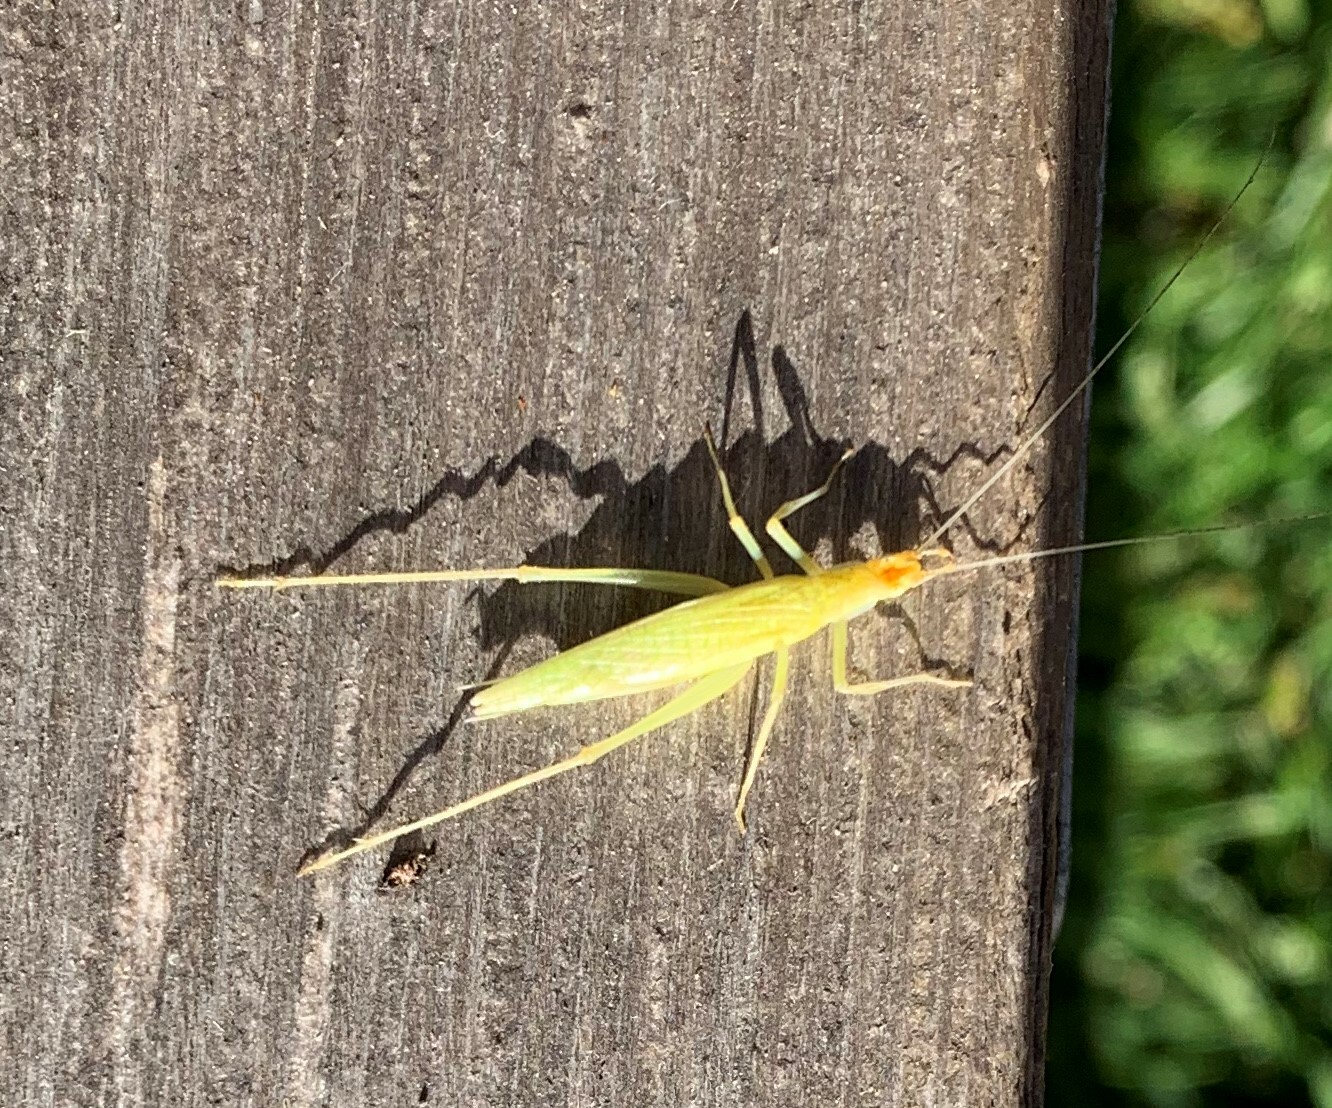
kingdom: Animalia
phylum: Arthropoda
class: Insecta
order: Orthoptera
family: Gryllidae
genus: Oecanthus
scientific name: Oecanthus niveus
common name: Narrow-winged tree cricket
